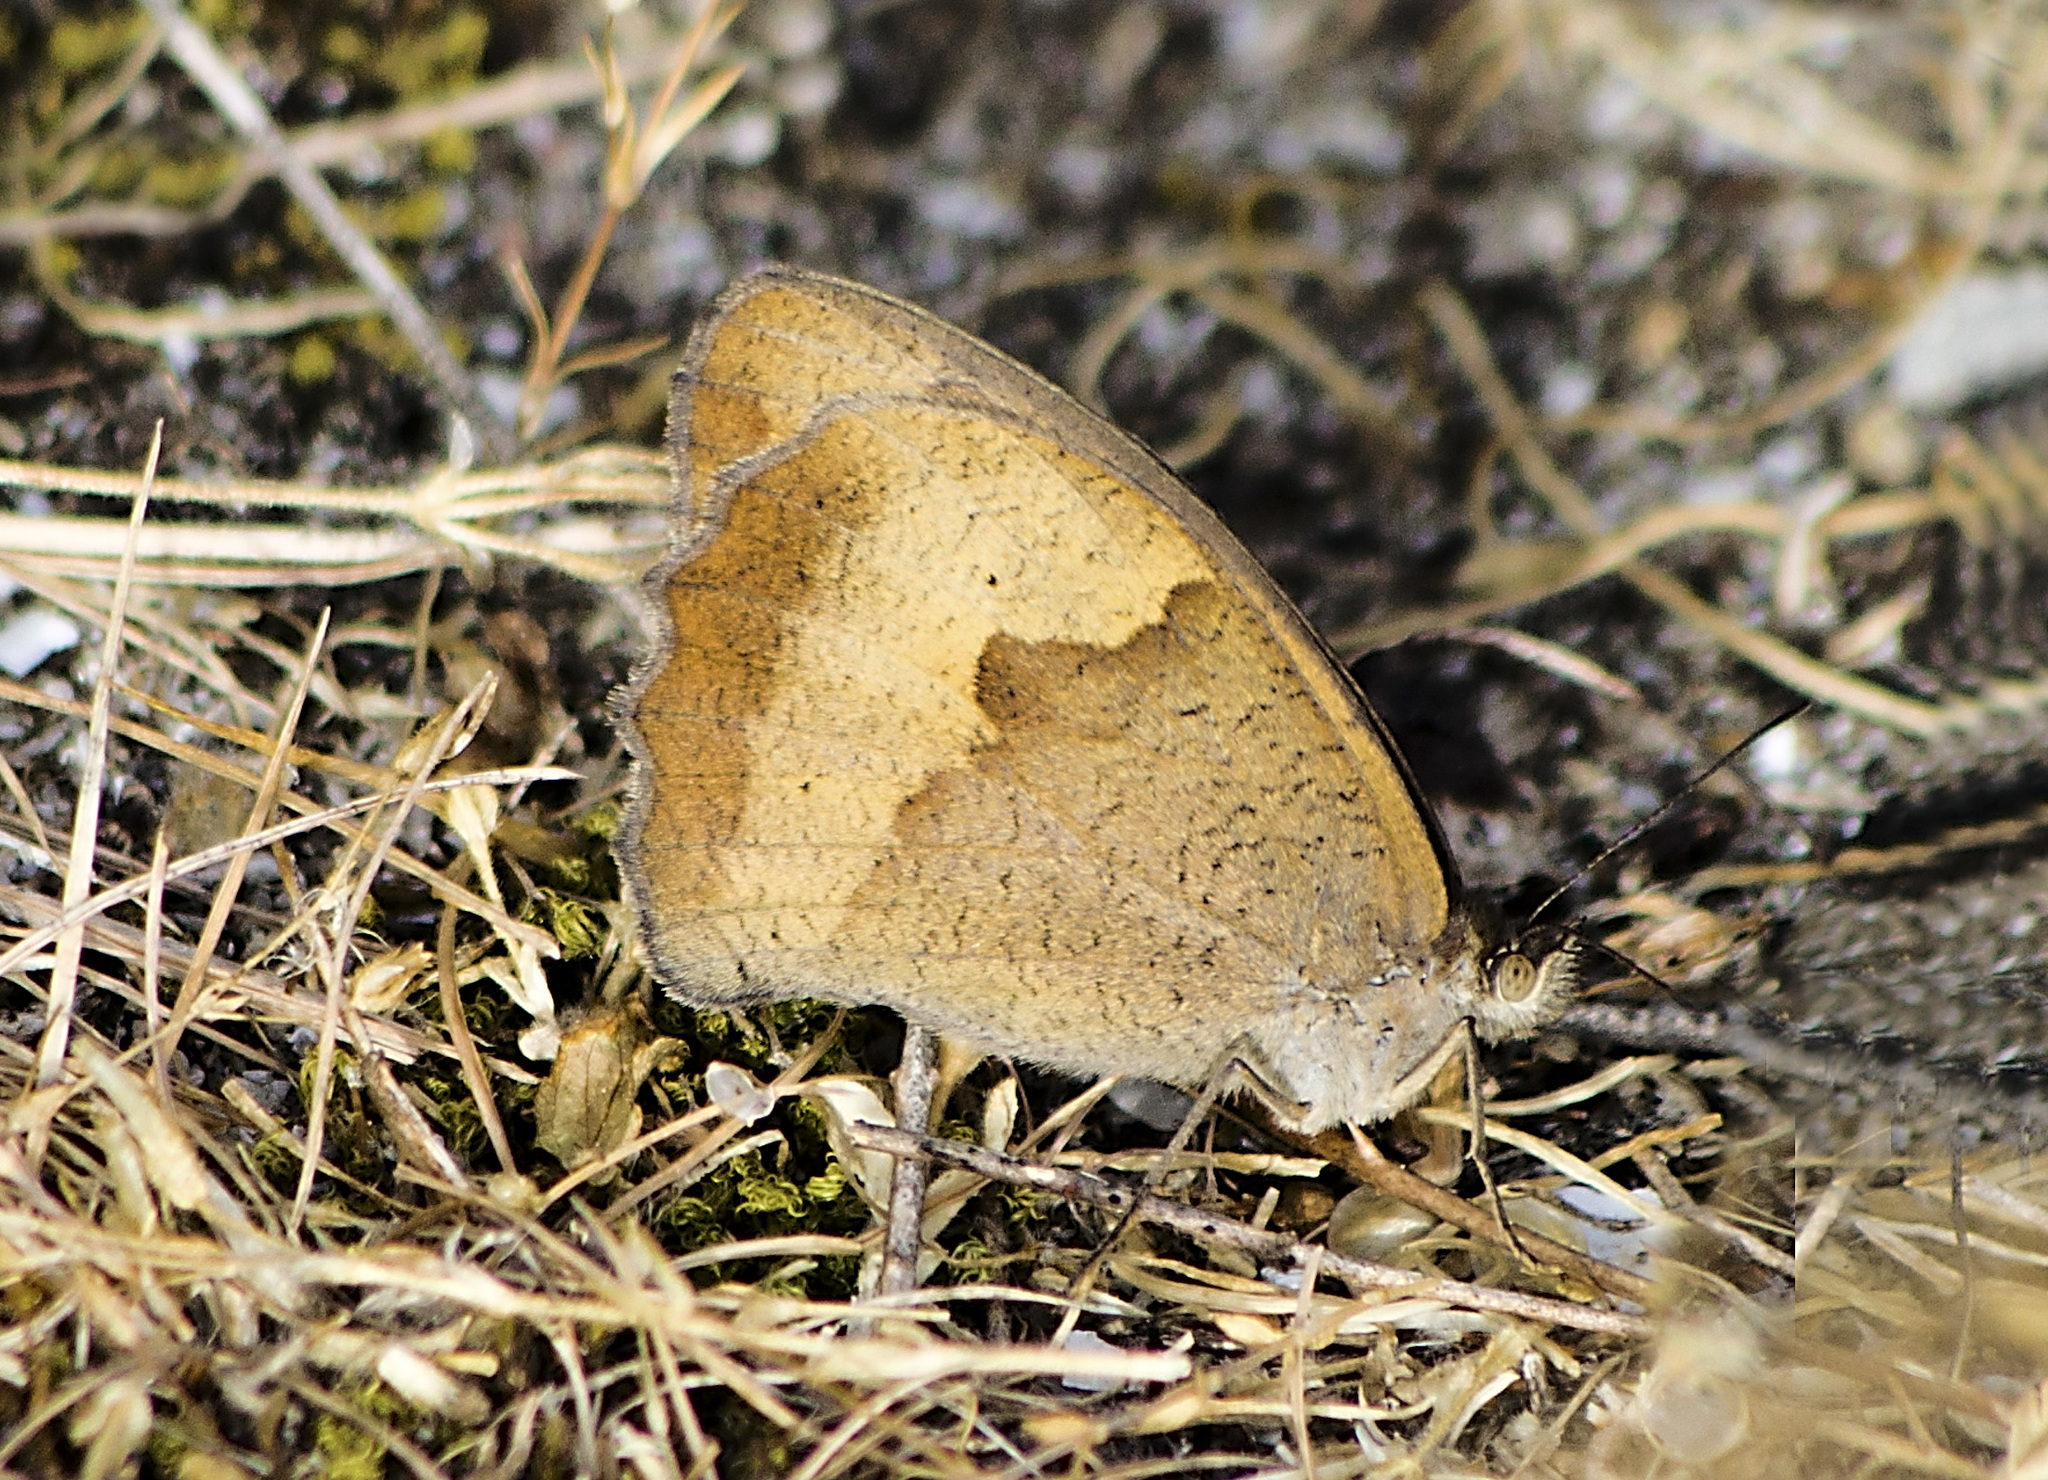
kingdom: Animalia
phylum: Arthropoda
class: Insecta
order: Lepidoptera
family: Nymphalidae
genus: Maniola
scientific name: Maniola jurtina
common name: Meadow brown
